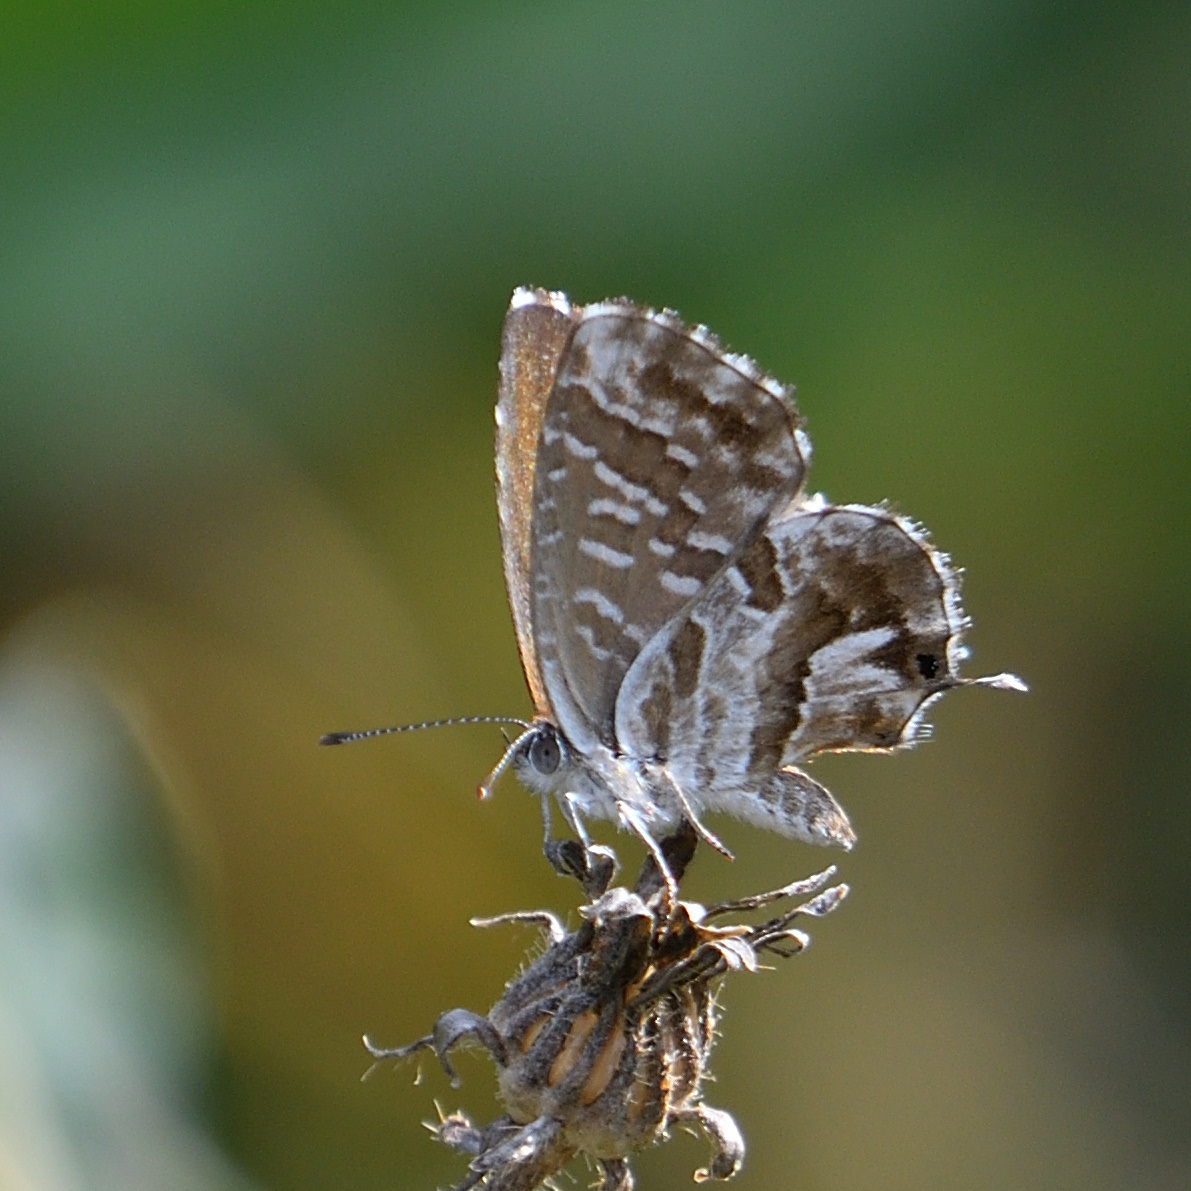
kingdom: Animalia
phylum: Arthropoda
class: Insecta
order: Lepidoptera
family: Lycaenidae
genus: Cacyreus
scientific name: Cacyreus marshalli
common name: Geranium bronze
